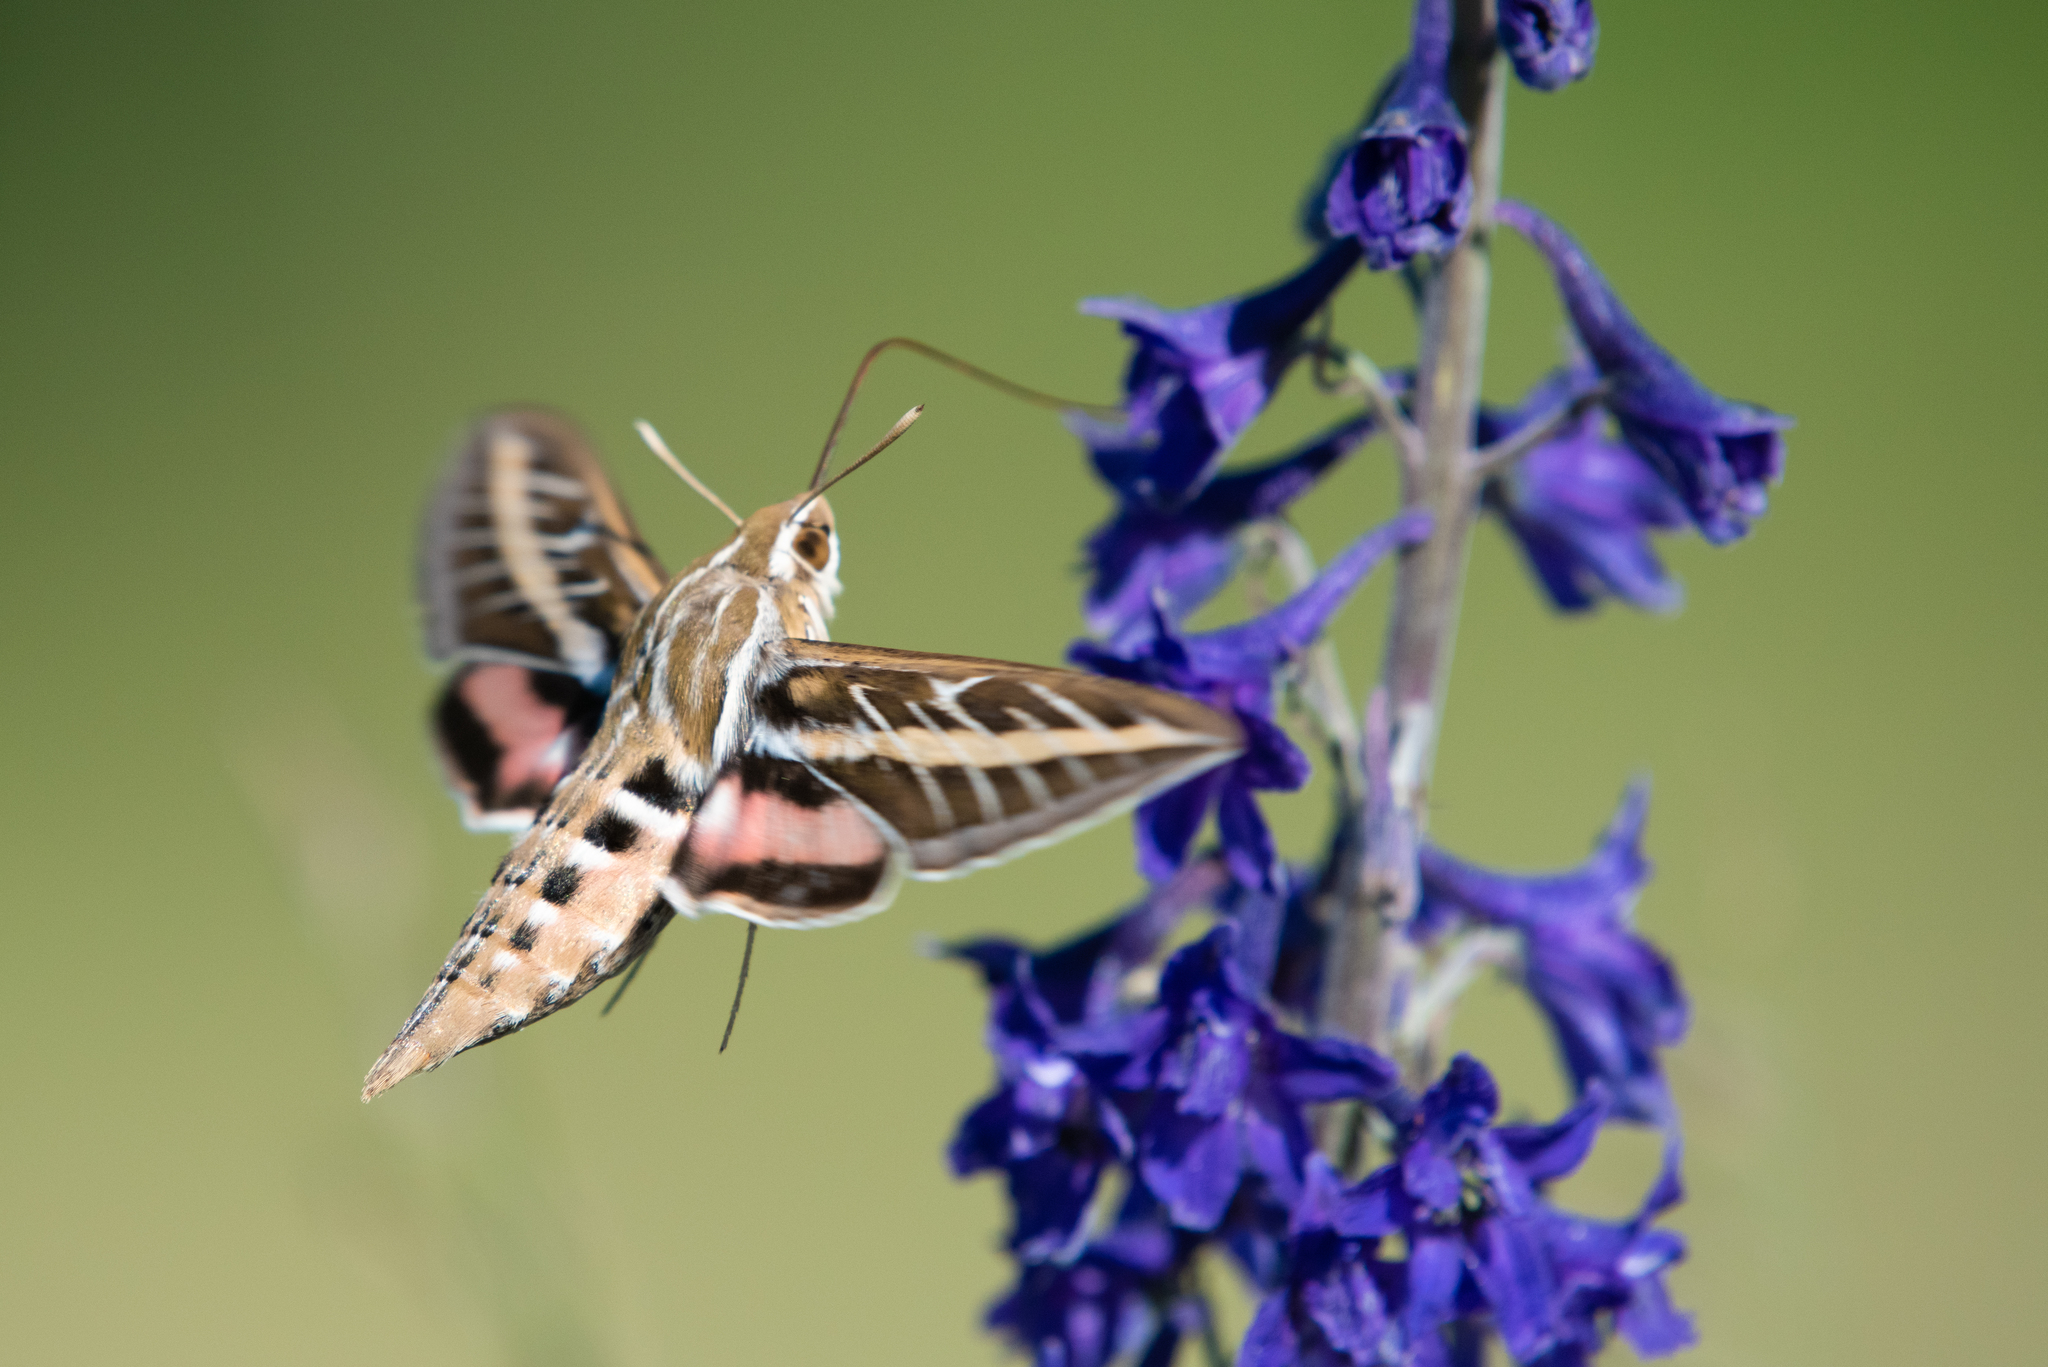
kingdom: Animalia
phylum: Arthropoda
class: Insecta
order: Lepidoptera
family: Sphingidae
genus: Hyles
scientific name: Hyles lineata
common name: White-lined sphinx
